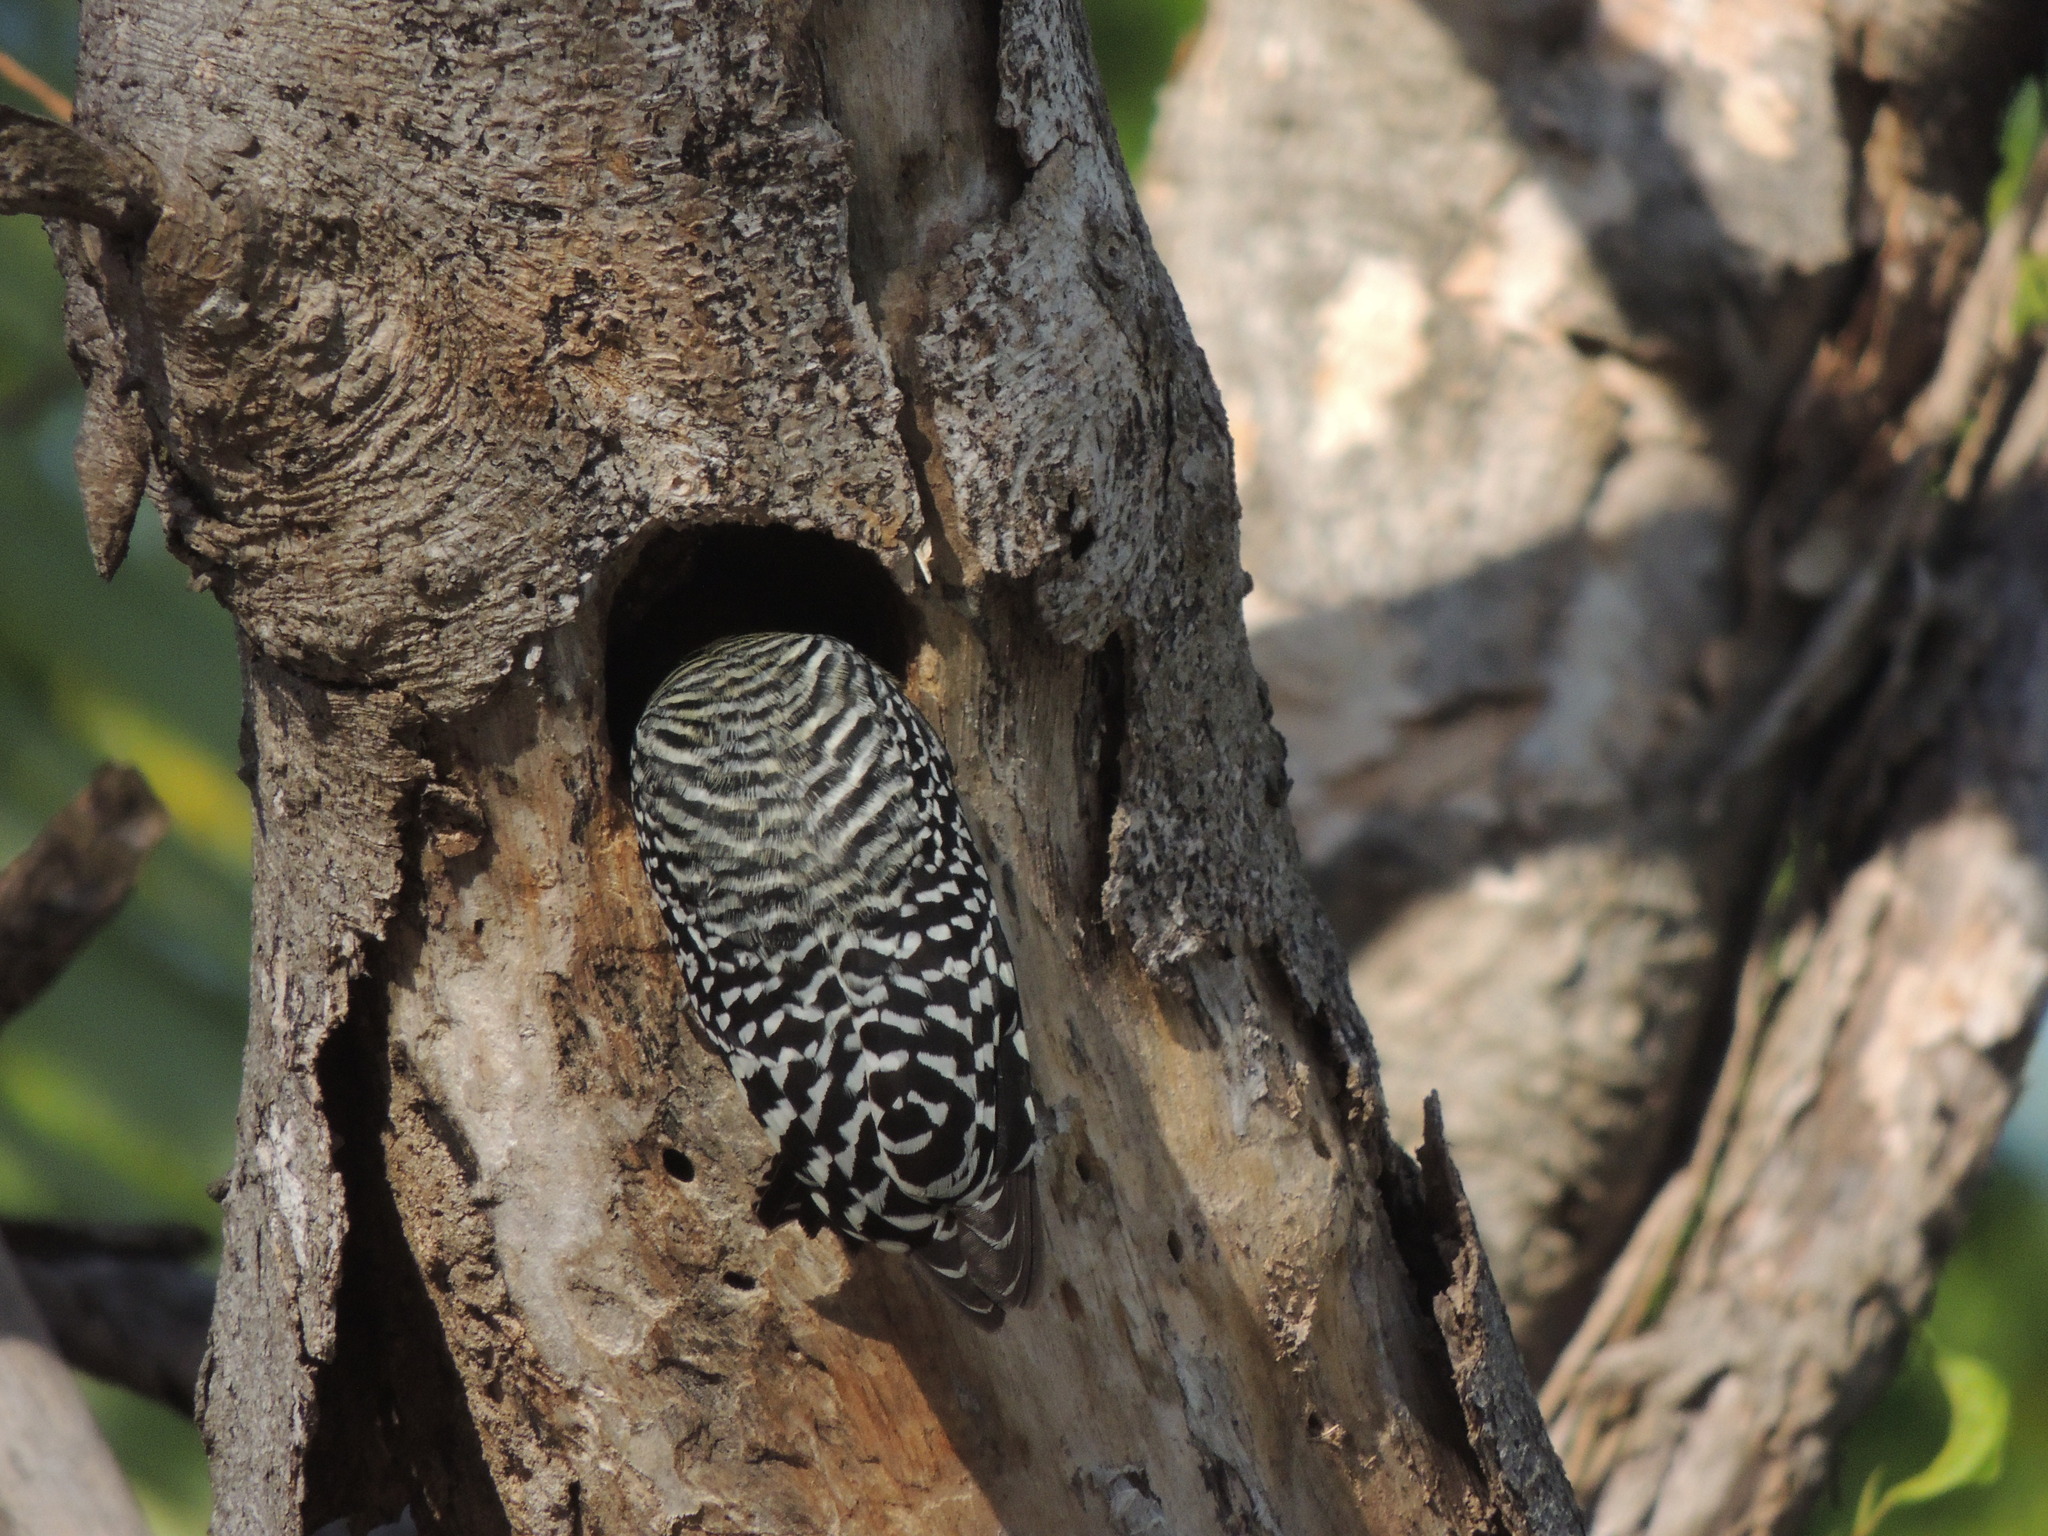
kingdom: Animalia
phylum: Chordata
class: Aves
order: Piciformes
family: Picidae
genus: Melanerpes
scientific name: Melanerpes rubricapillus
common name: Red-crowned woodpecker
